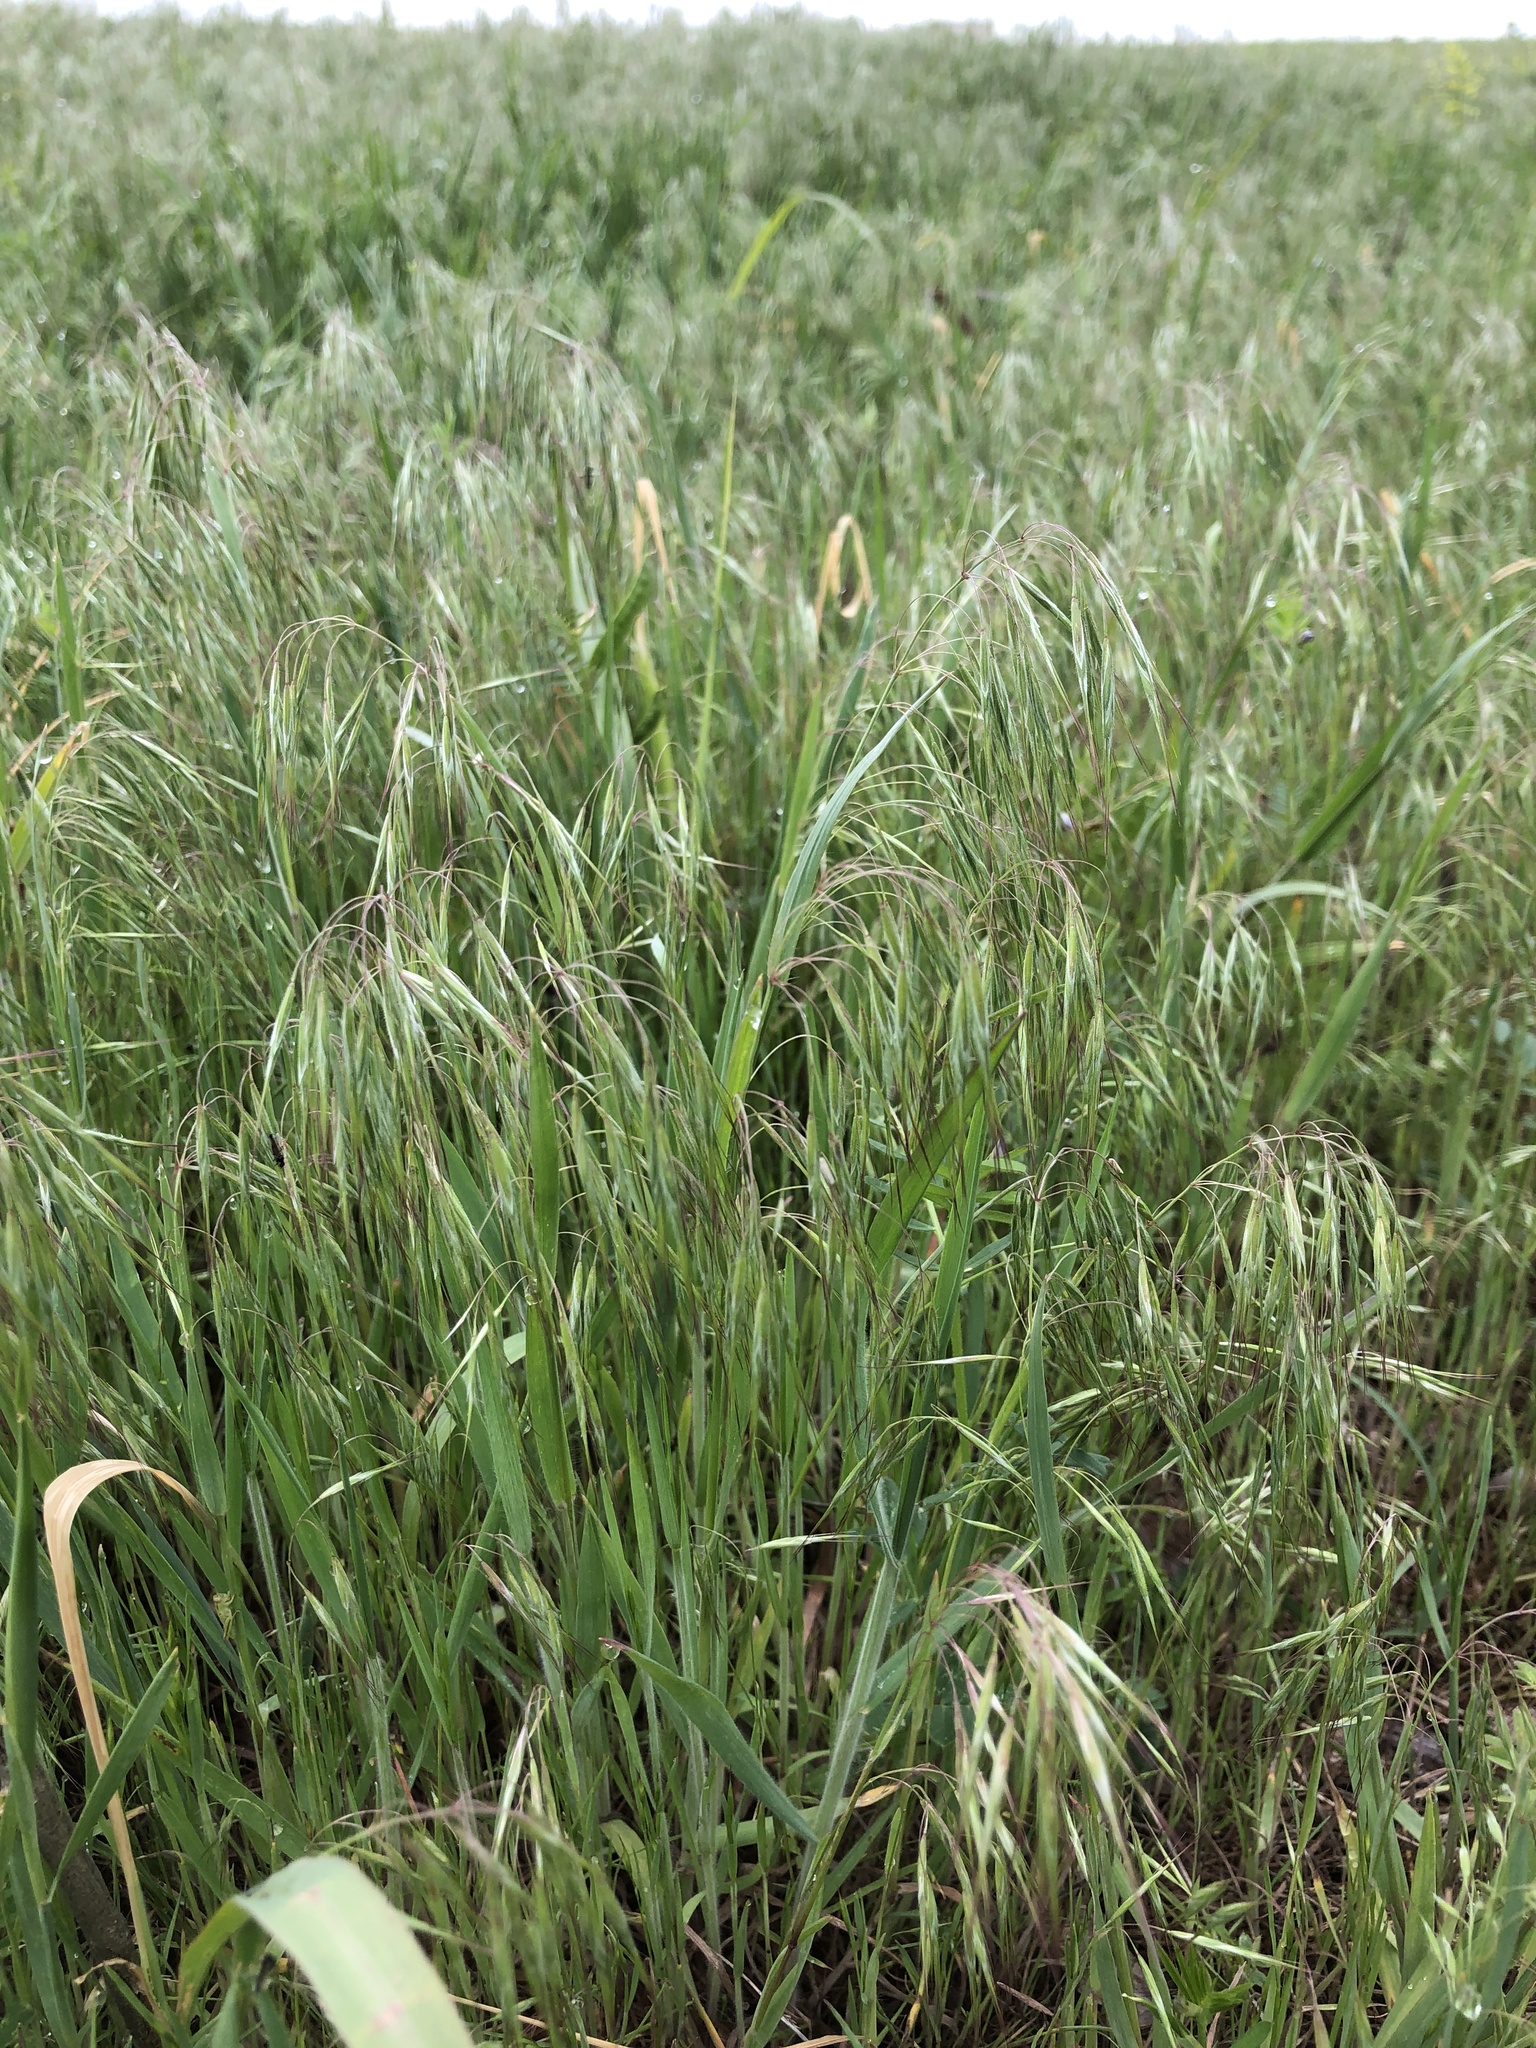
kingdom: Plantae
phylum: Tracheophyta
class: Liliopsida
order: Poales
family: Poaceae
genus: Bromus
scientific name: Bromus tectorum
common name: Cheatgrass
